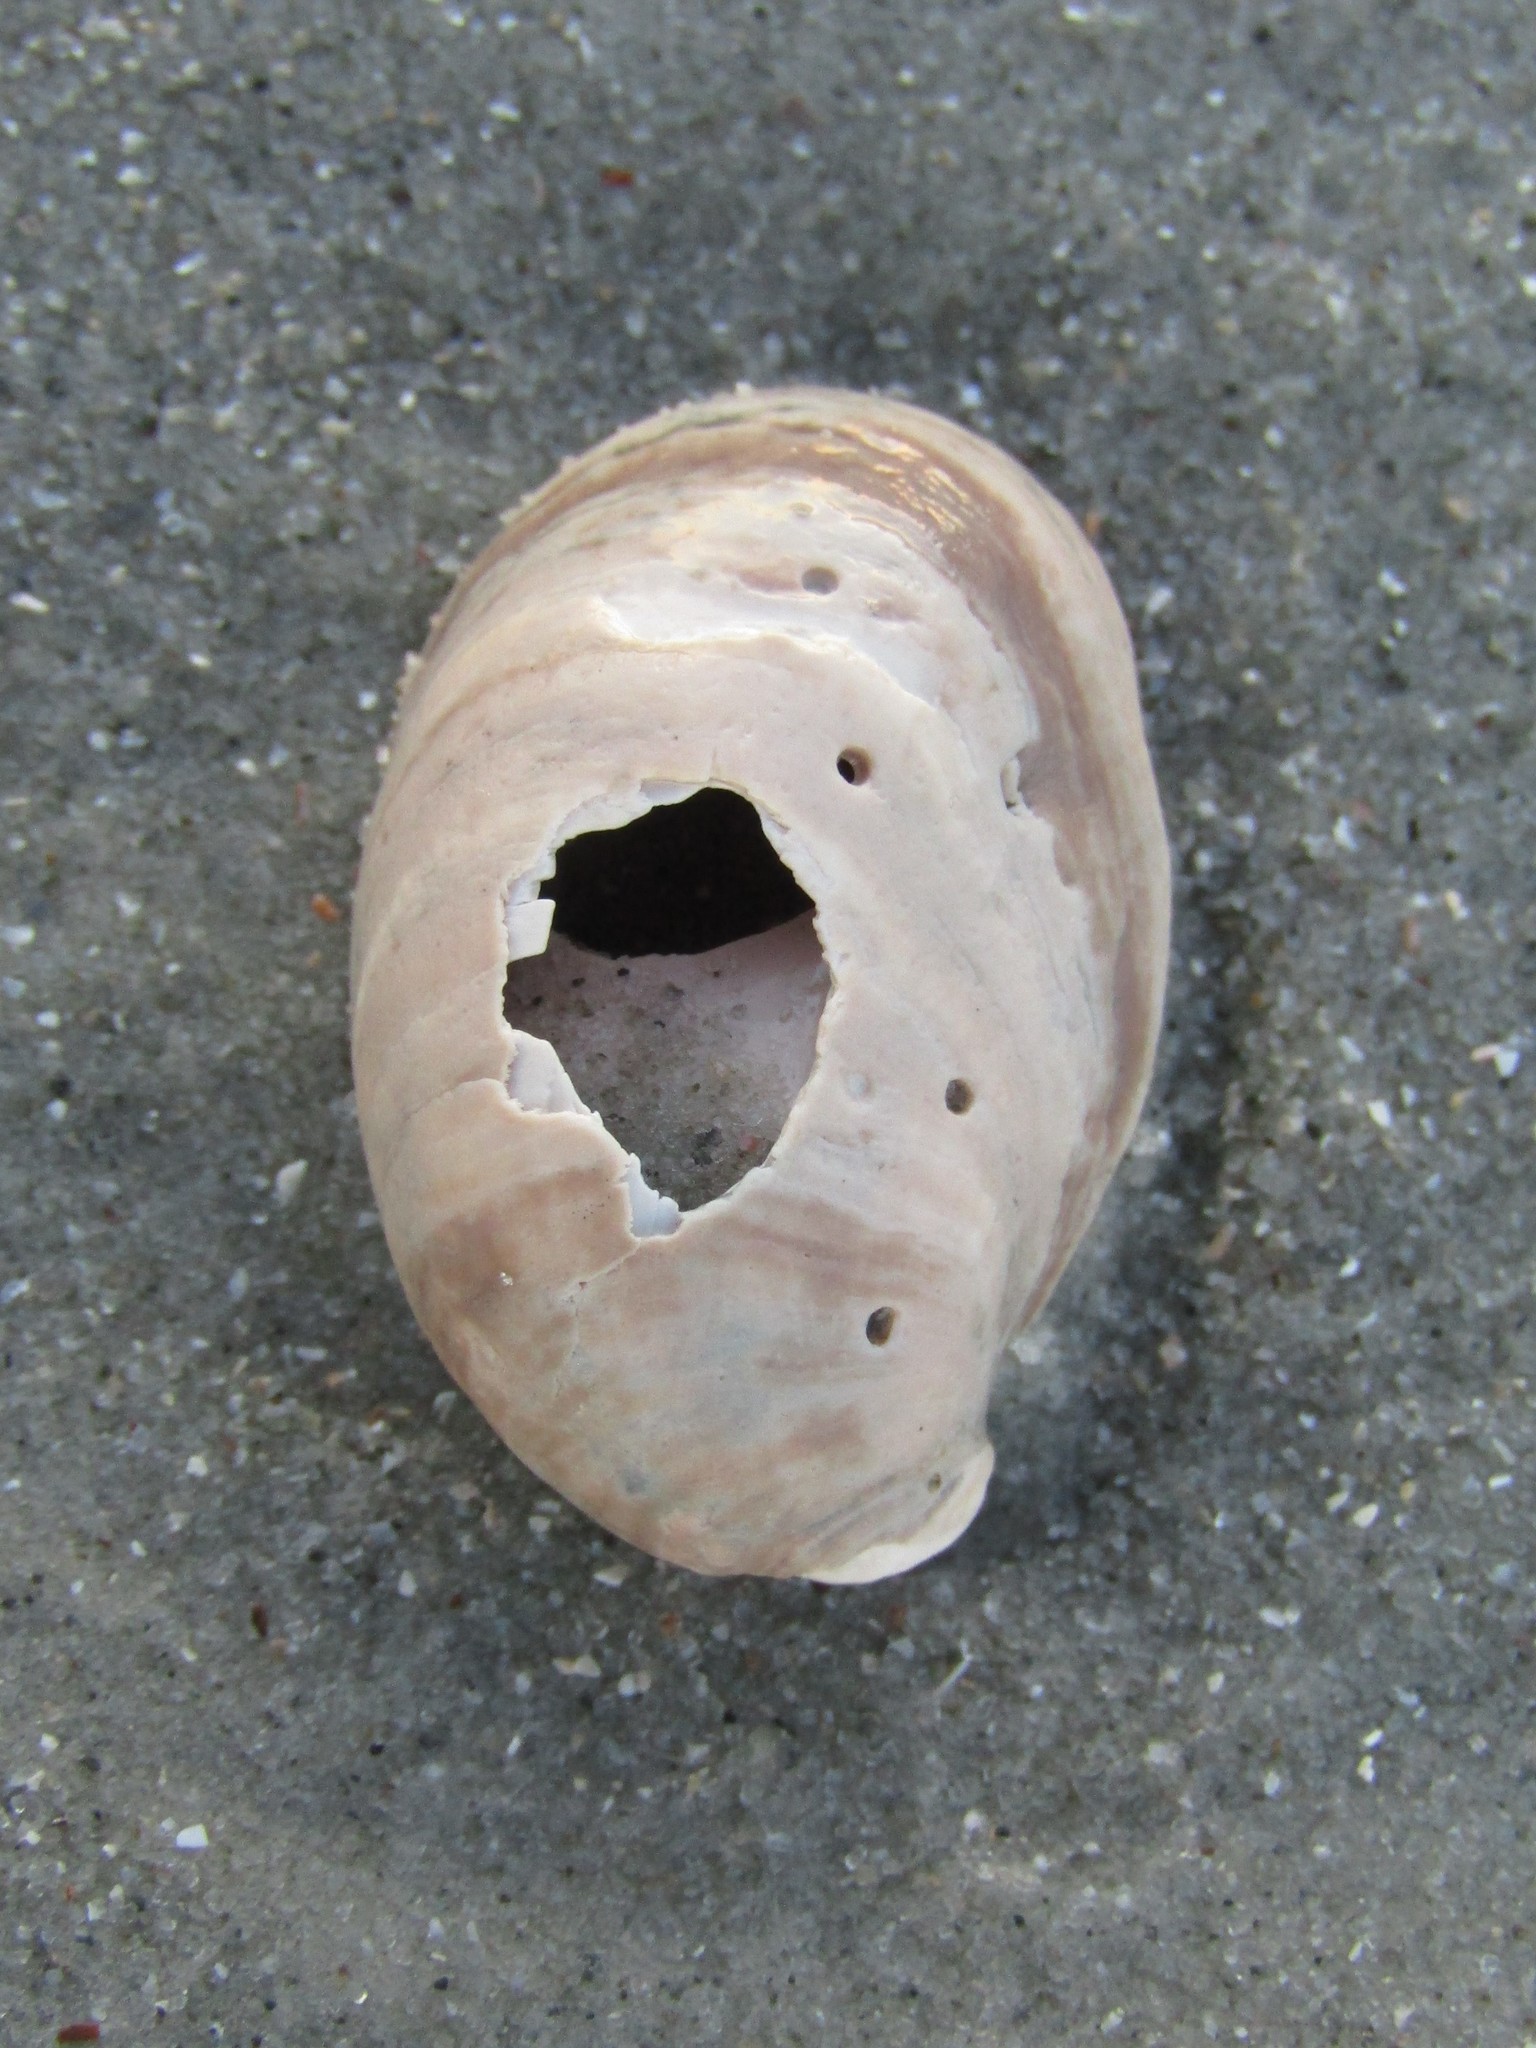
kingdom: Animalia
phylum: Mollusca
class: Gastropoda
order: Littorinimorpha
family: Calyptraeidae
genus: Crepidula
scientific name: Crepidula fornicata
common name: Slipper limpet
